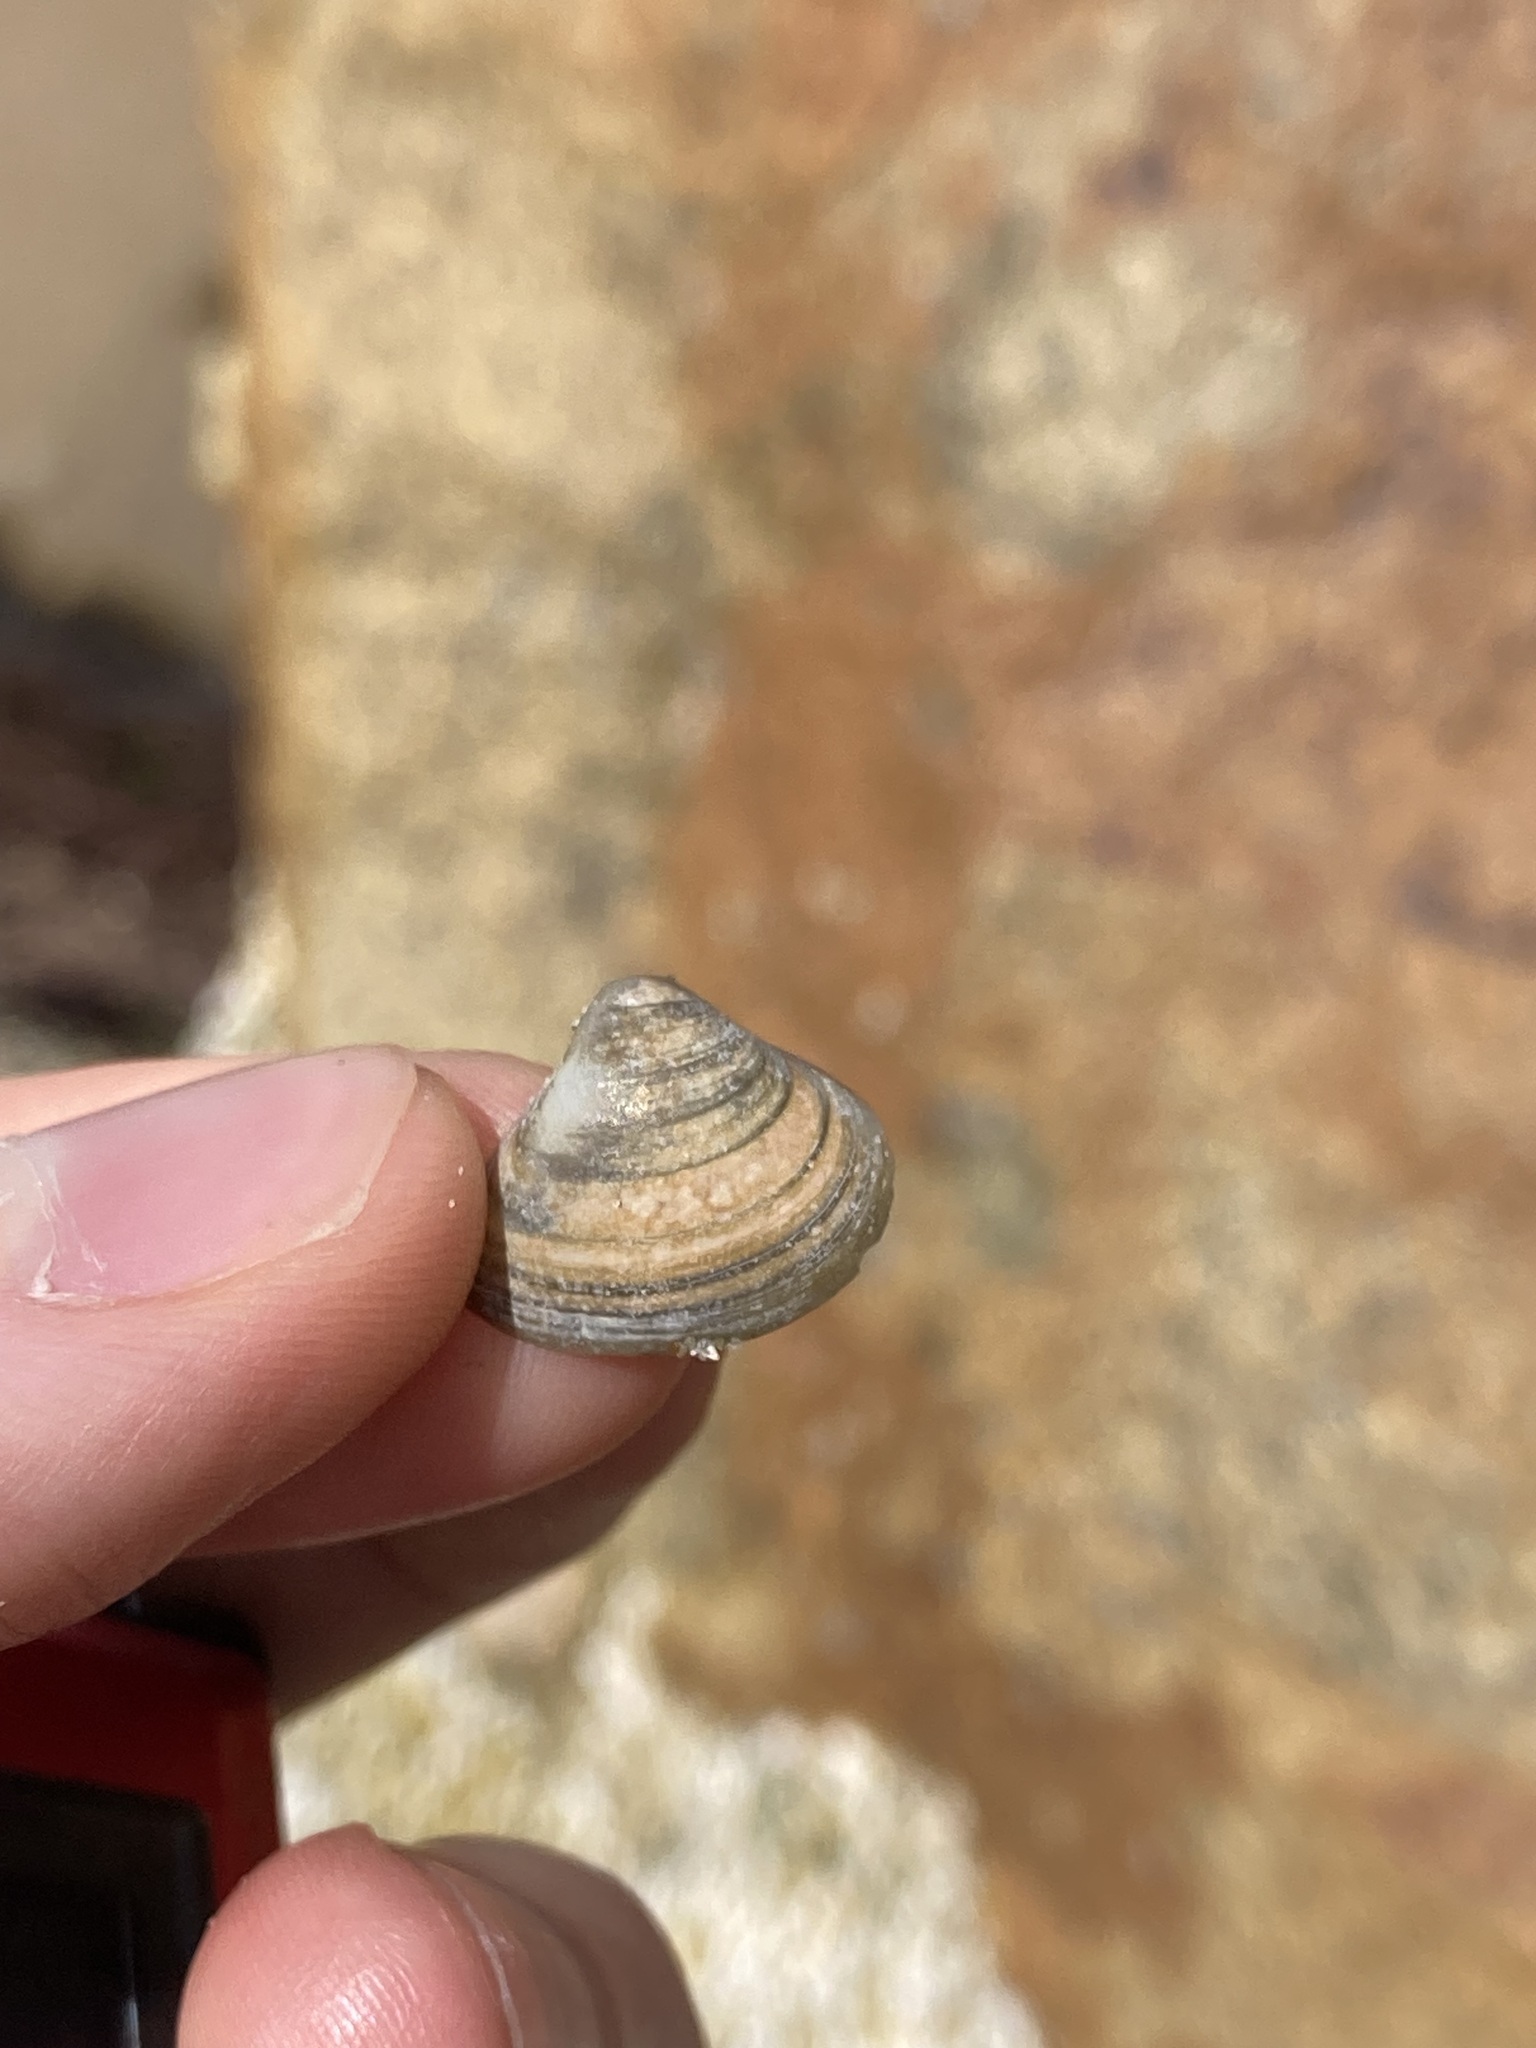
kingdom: Animalia
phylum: Mollusca
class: Bivalvia
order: Venerida
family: Mactridae
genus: Spisula
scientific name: Spisula trigonella
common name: Trigonal mactra
